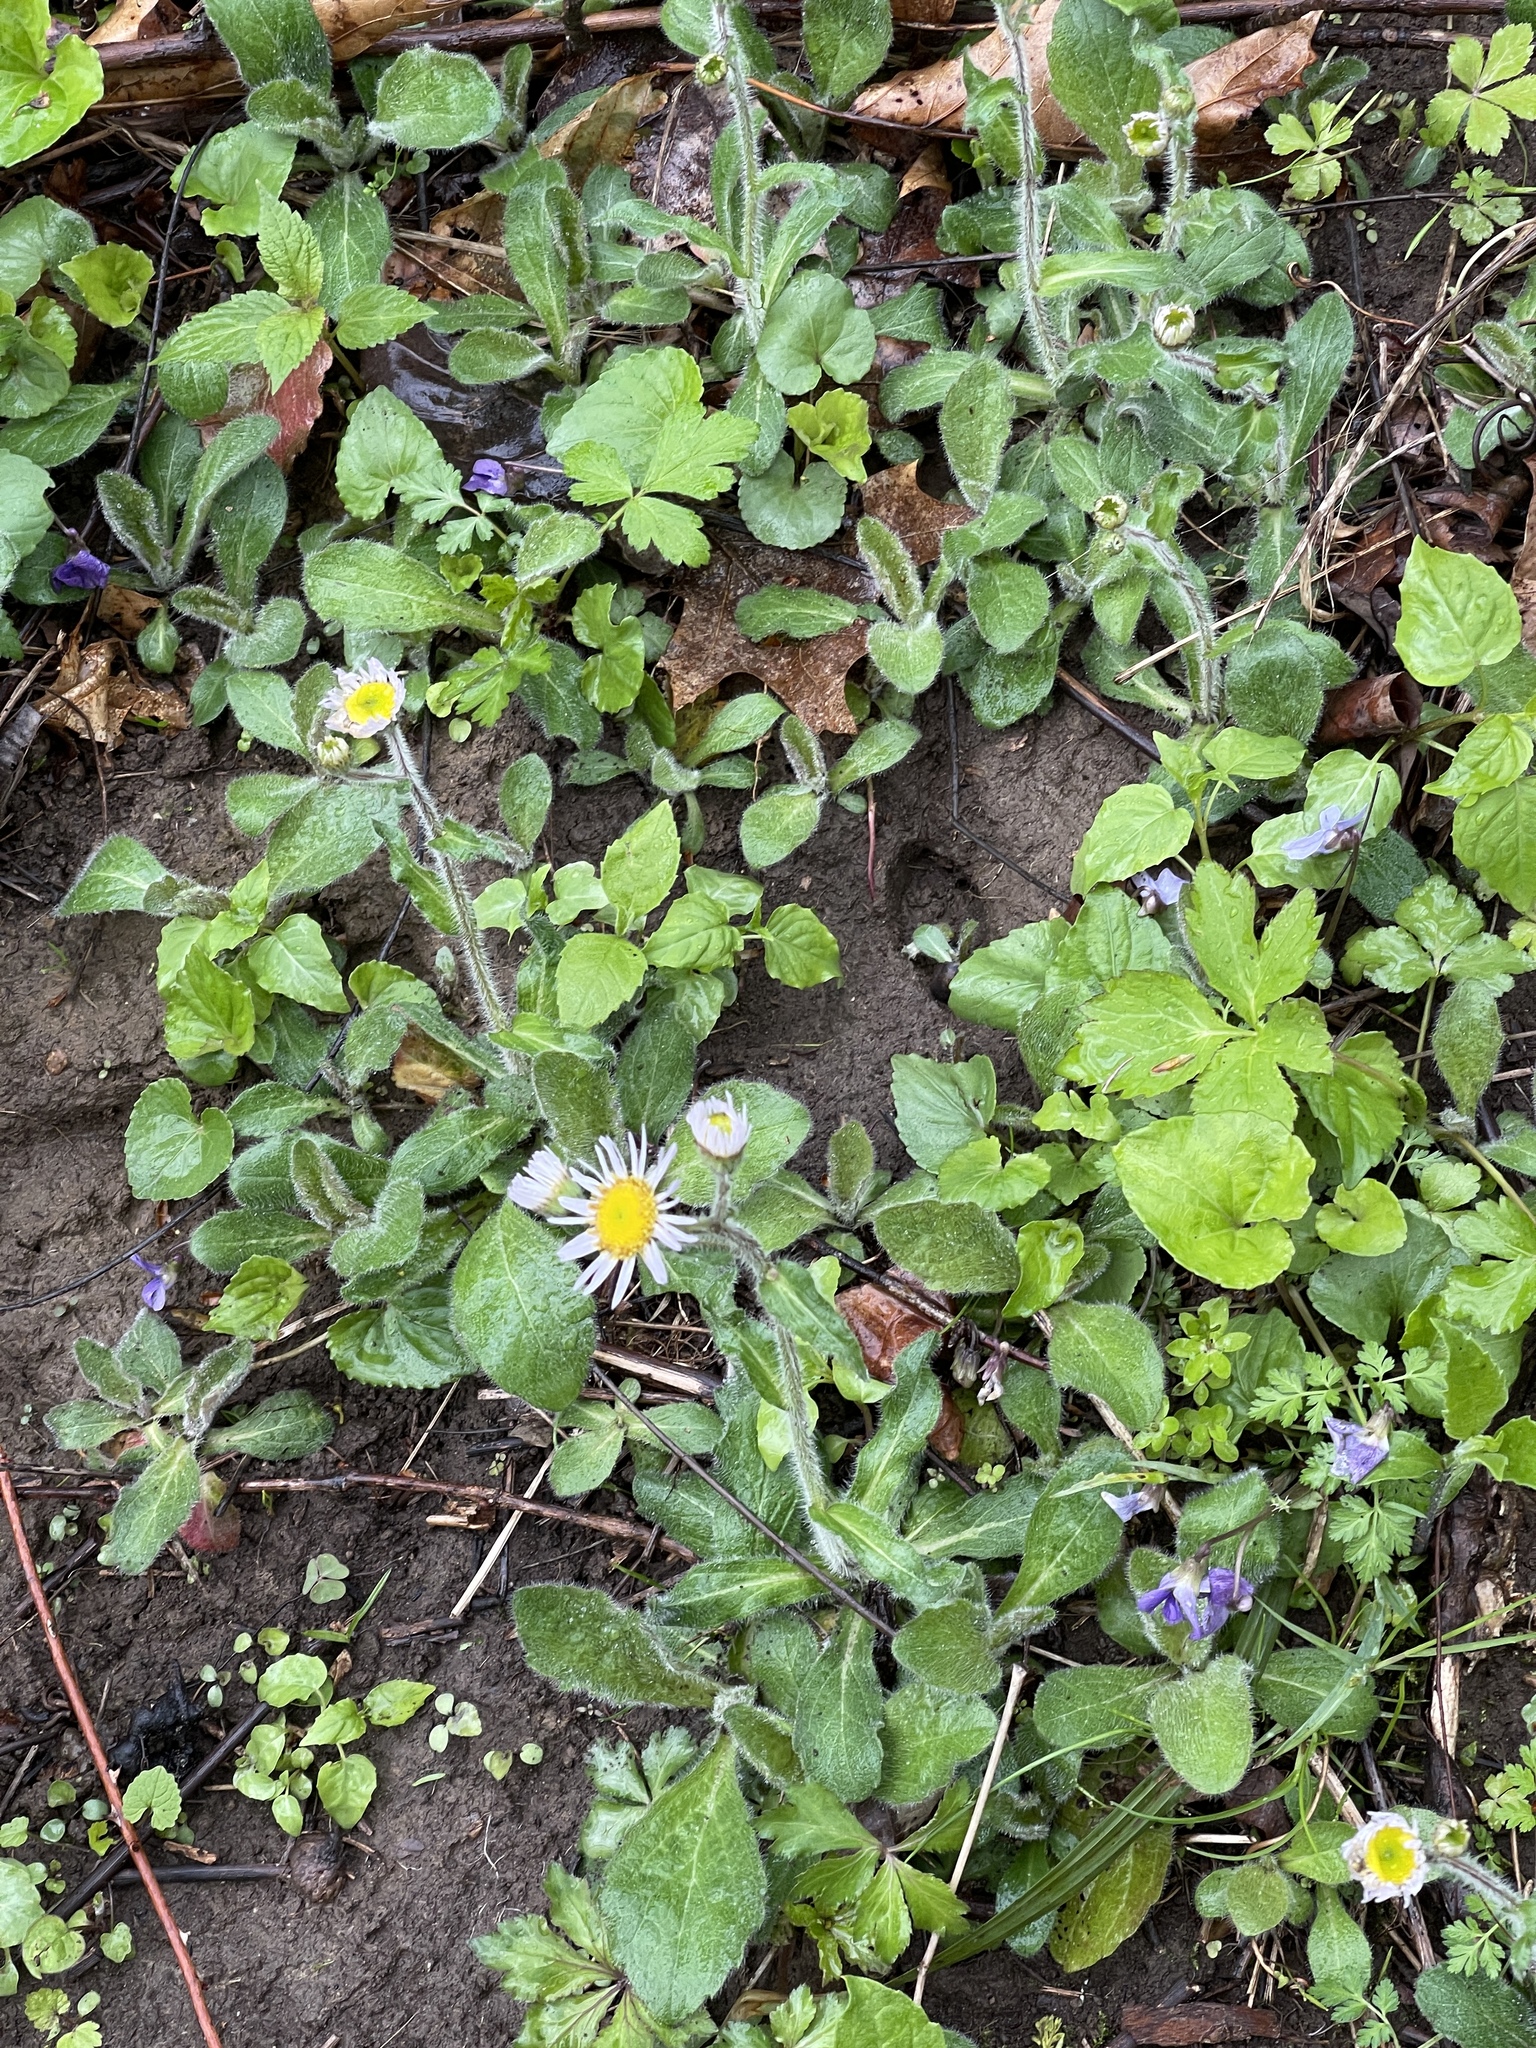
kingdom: Plantae
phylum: Tracheophyta
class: Magnoliopsida
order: Asterales
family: Asteraceae
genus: Erigeron
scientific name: Erigeron pulchellus
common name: Hairy fleabane
